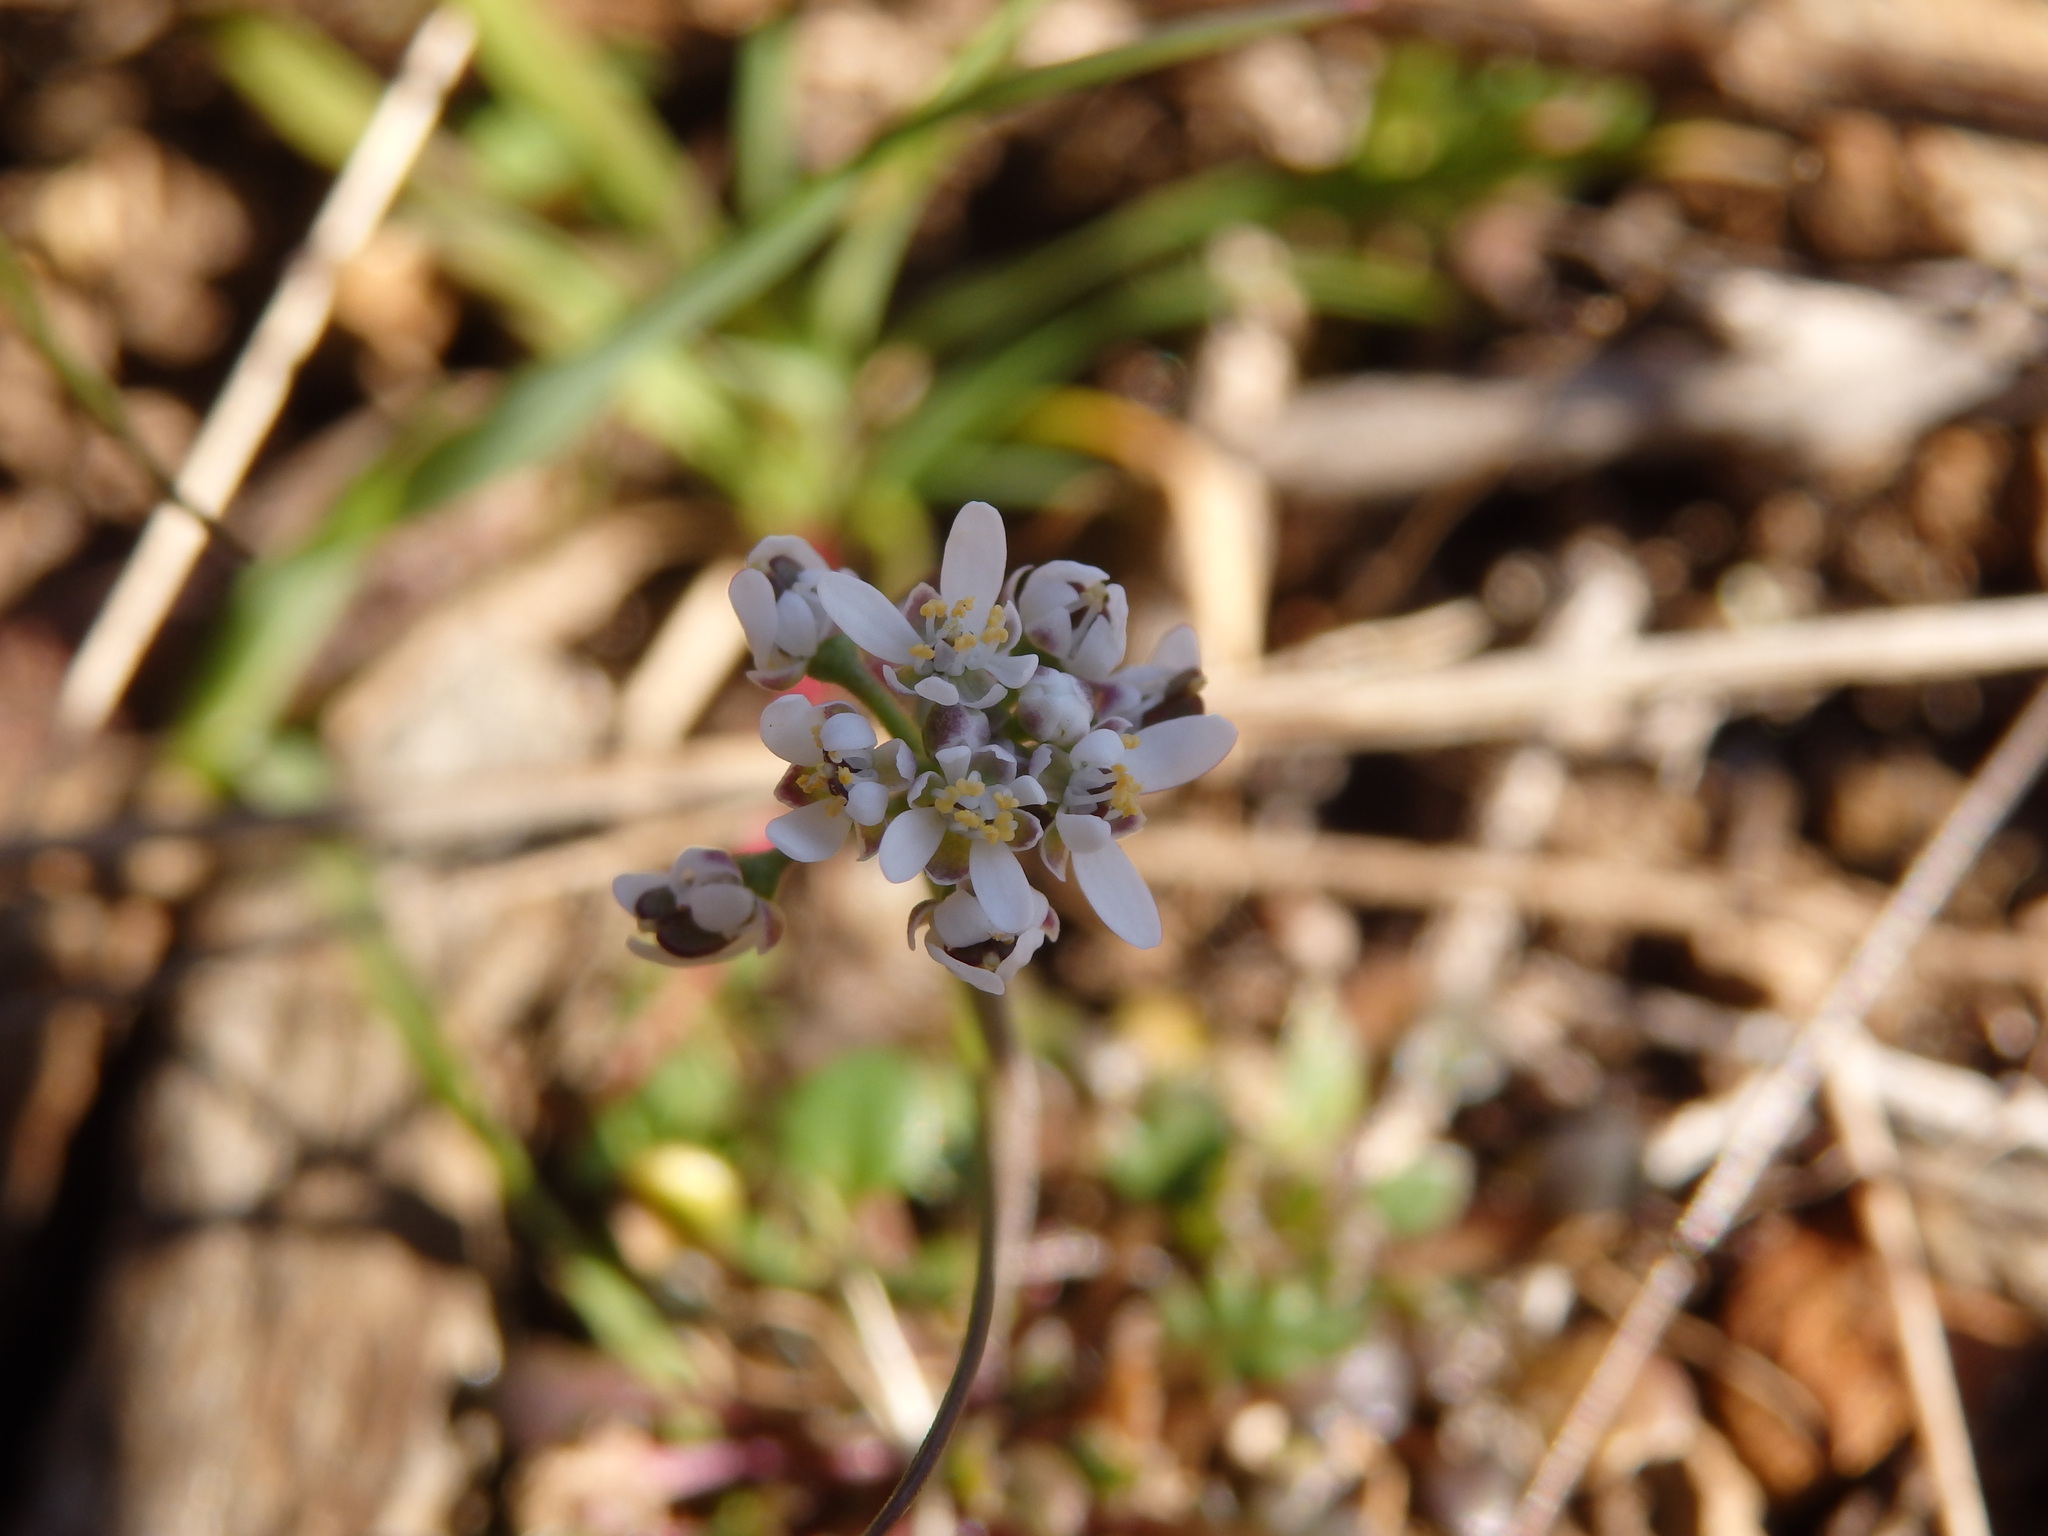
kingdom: Plantae
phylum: Tracheophyta
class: Magnoliopsida
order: Brassicales
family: Brassicaceae
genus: Teesdalia
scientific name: Teesdalia nudicaulis
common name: Shepherd's cress
